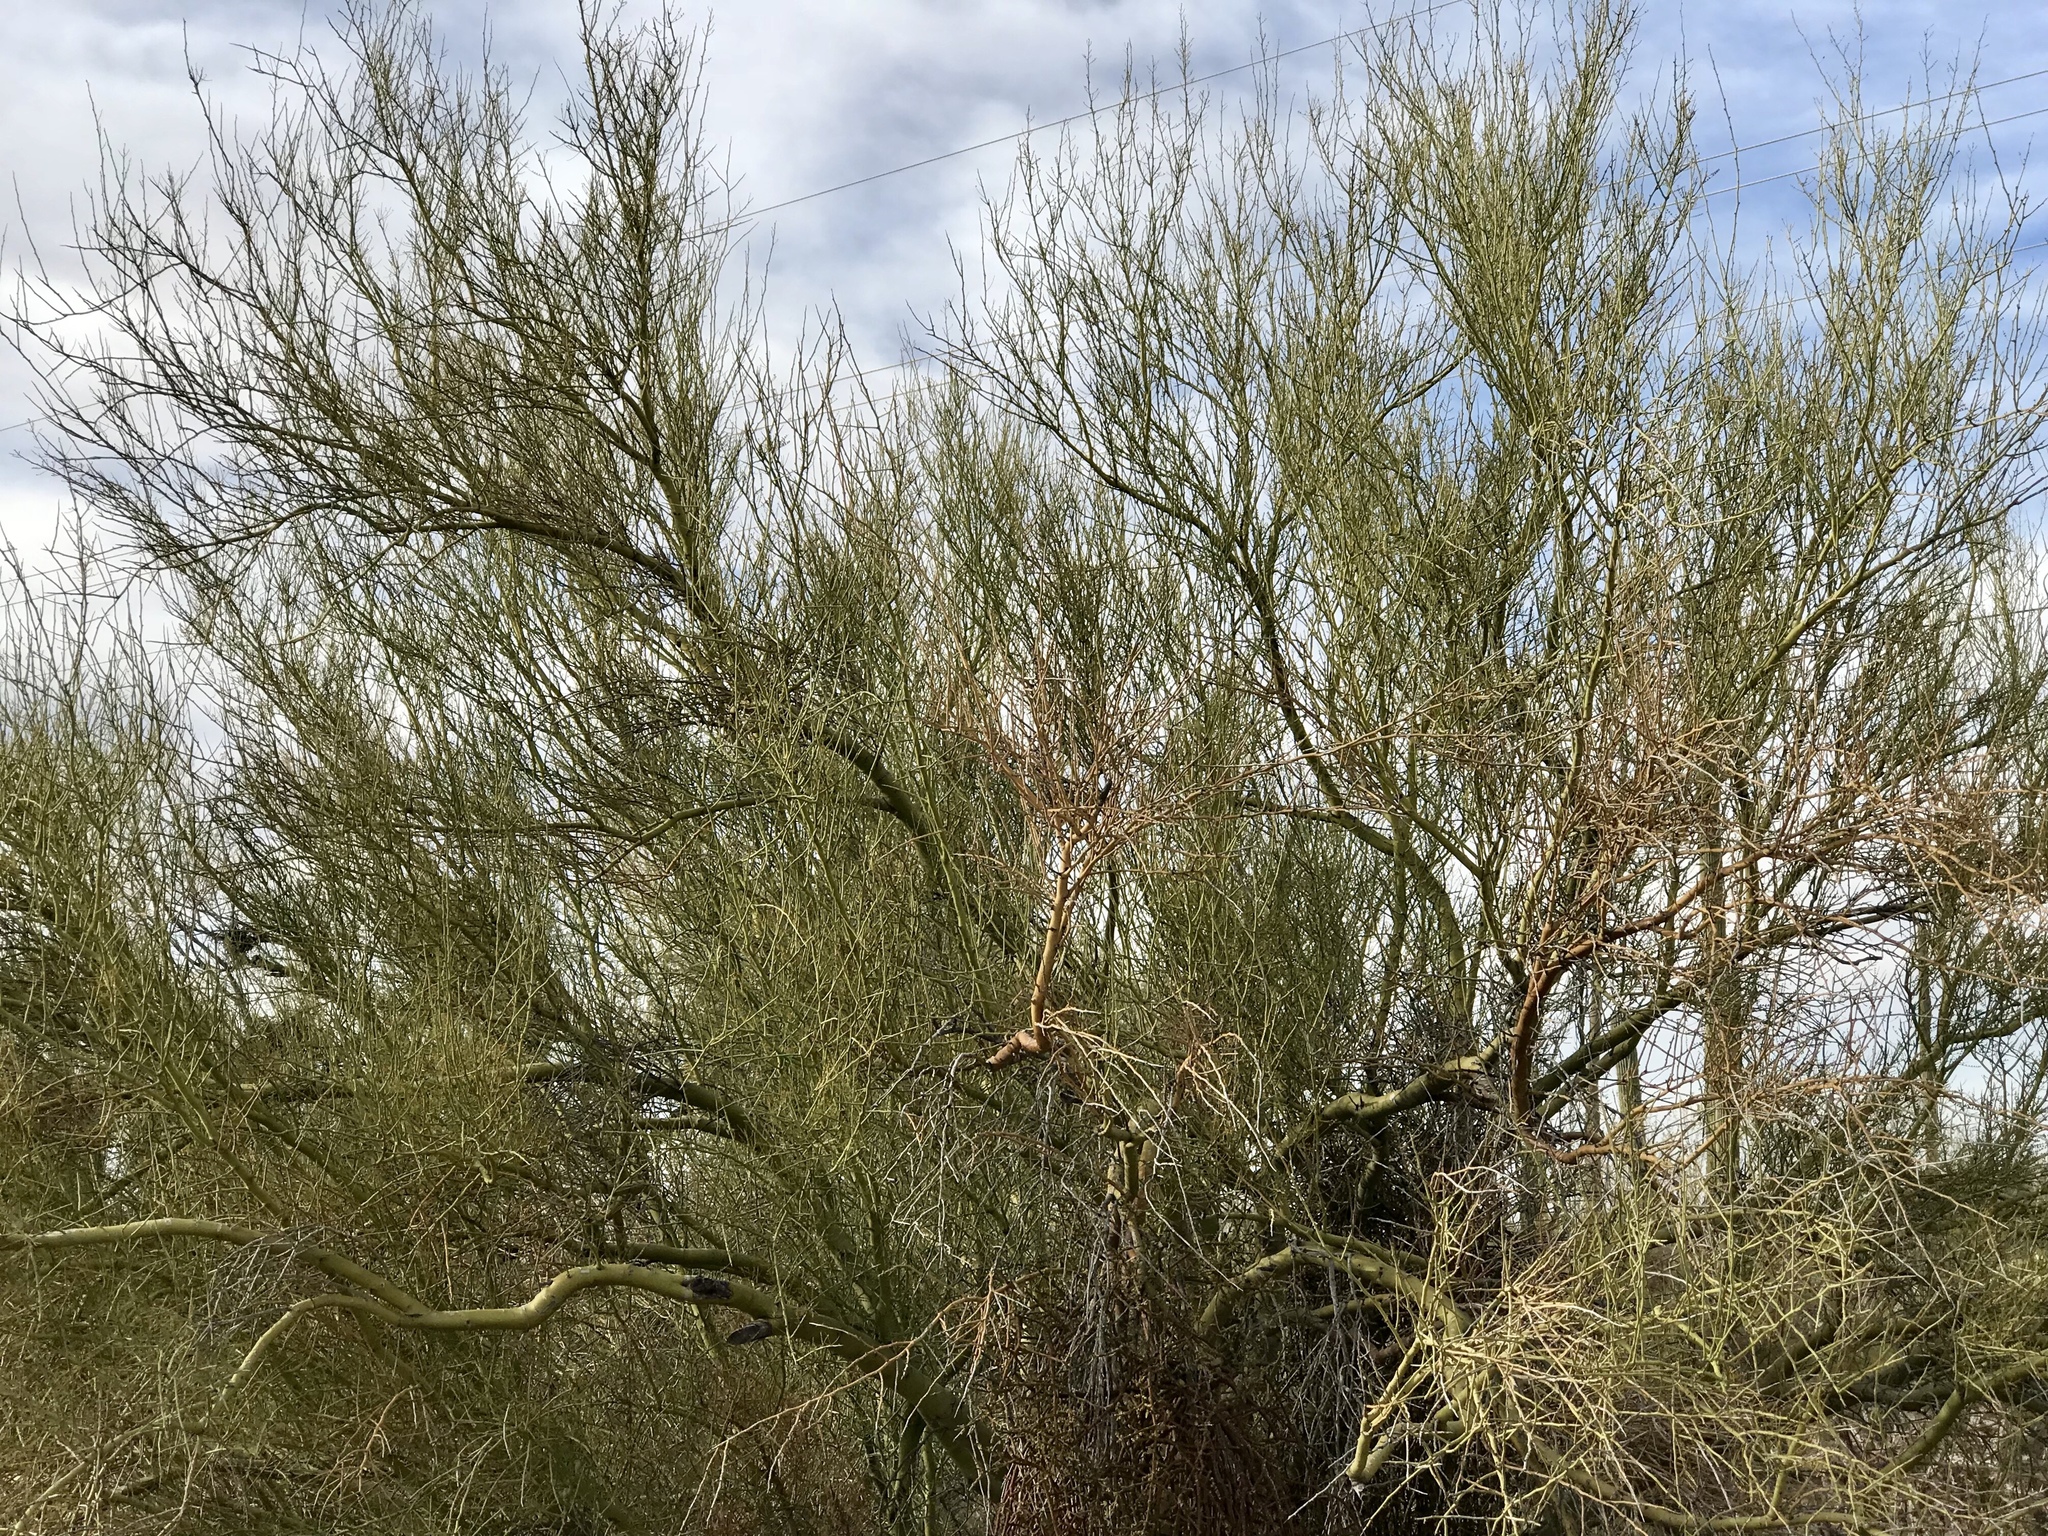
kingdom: Plantae
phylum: Tracheophyta
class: Magnoliopsida
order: Fabales
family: Fabaceae
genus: Parkinsonia
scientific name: Parkinsonia microphylla
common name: Yellow paloverde
